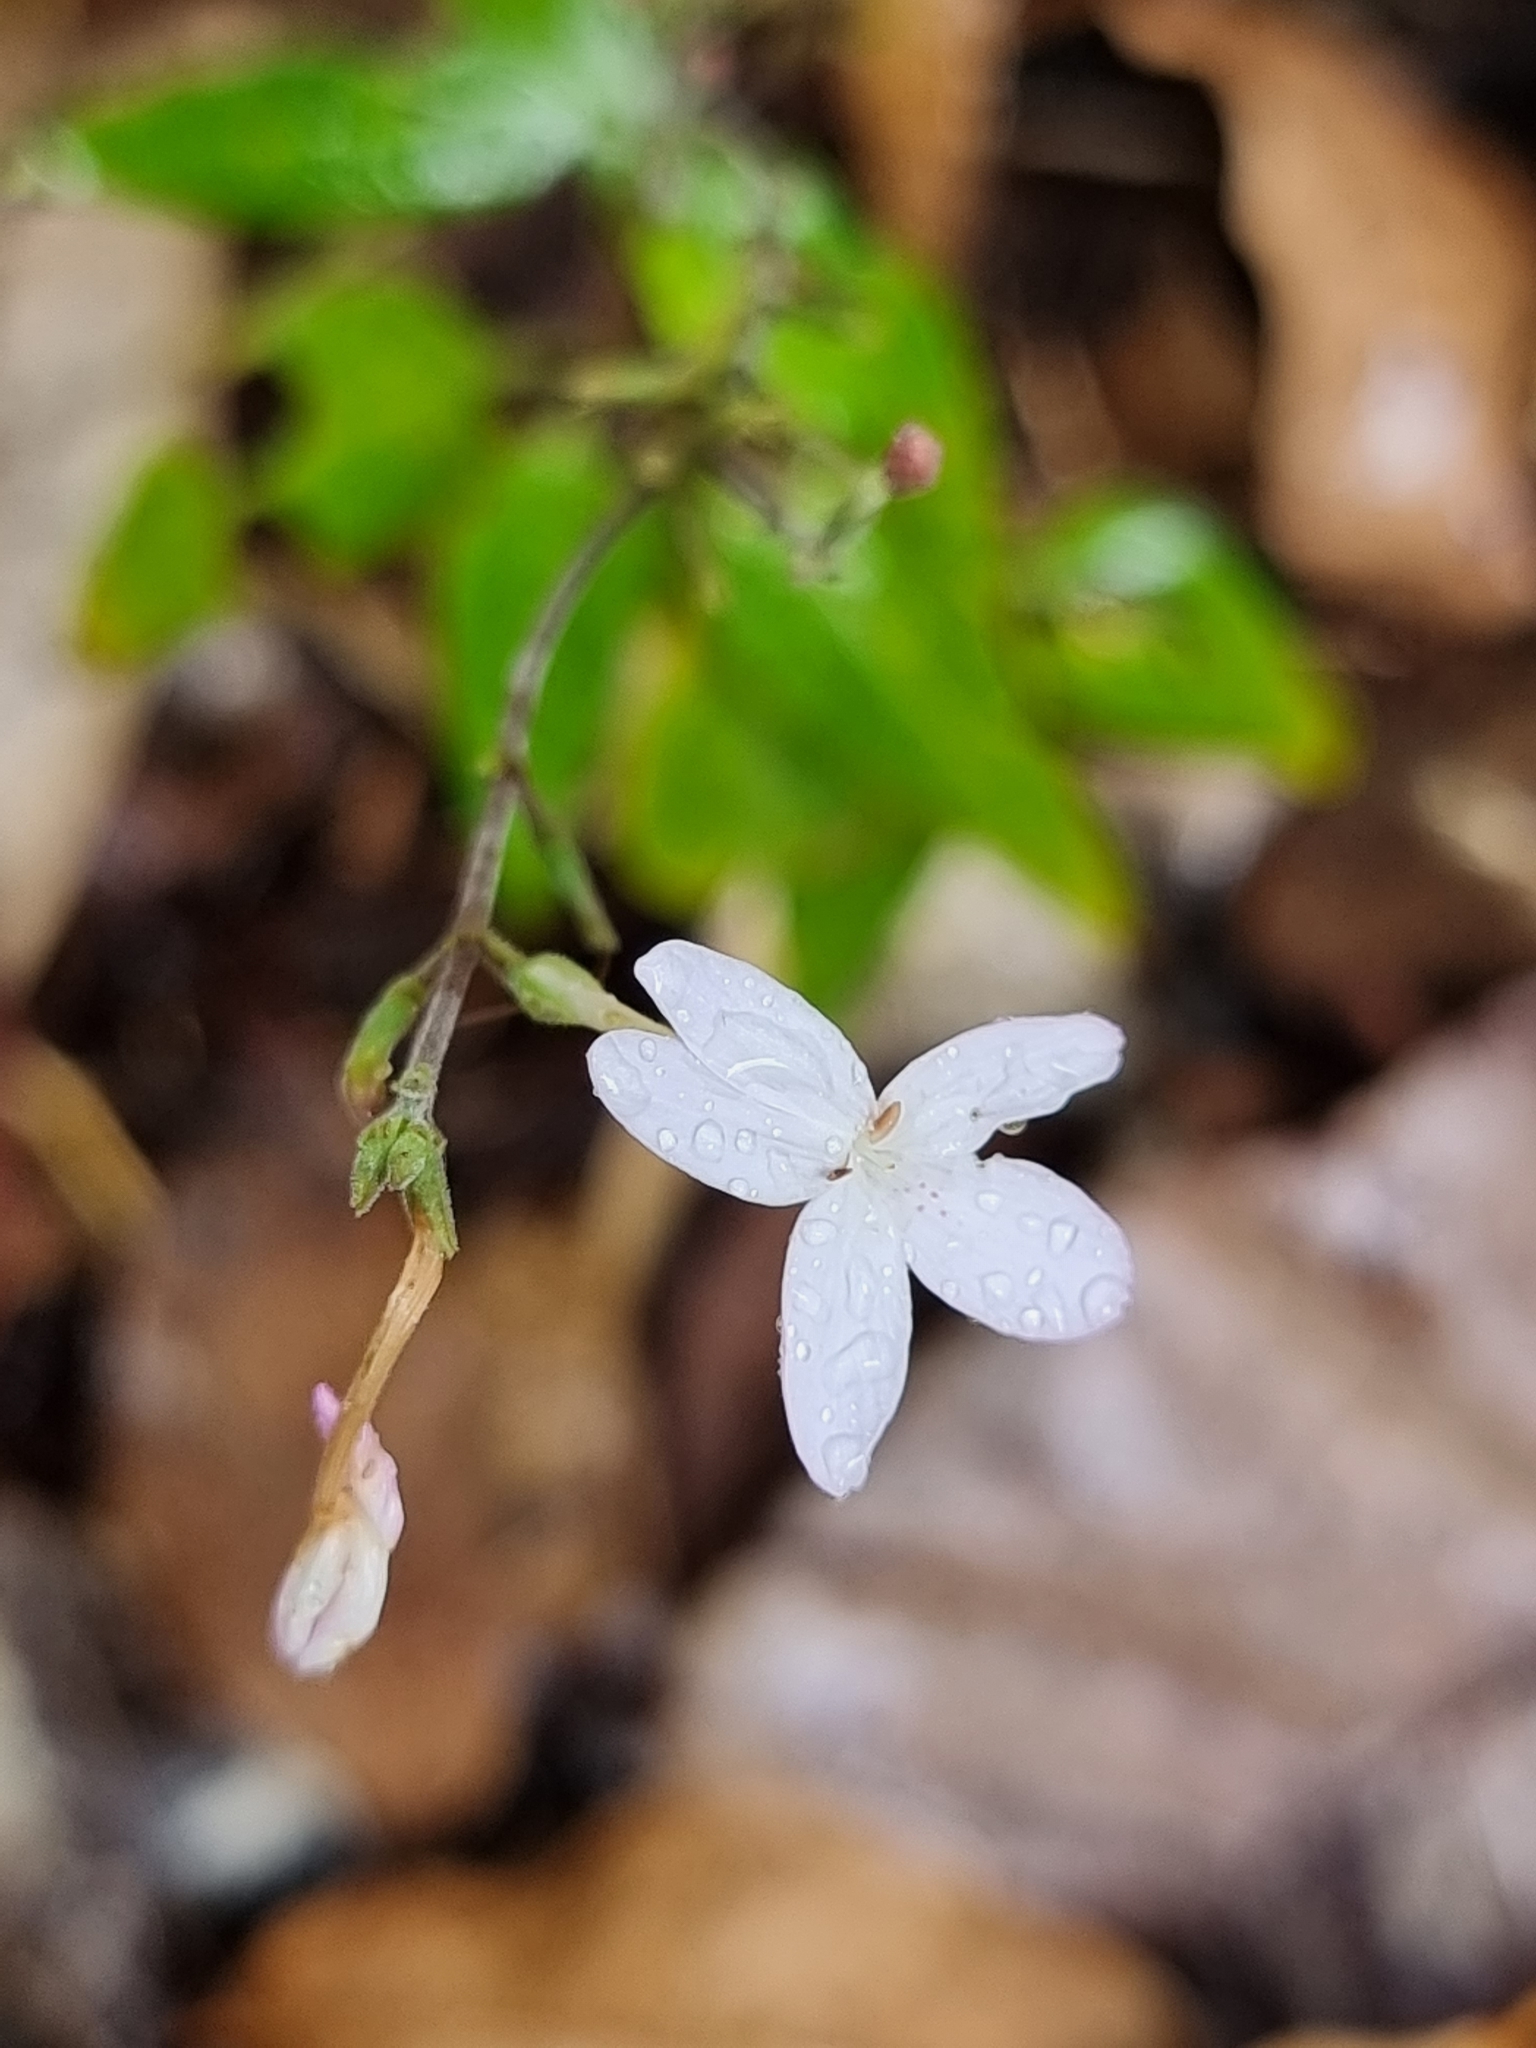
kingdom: Plantae
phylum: Tracheophyta
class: Magnoliopsida
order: Lamiales
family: Acanthaceae
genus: Pseuderanthemum
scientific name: Pseuderanthemum variabile
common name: Night and afternoon
